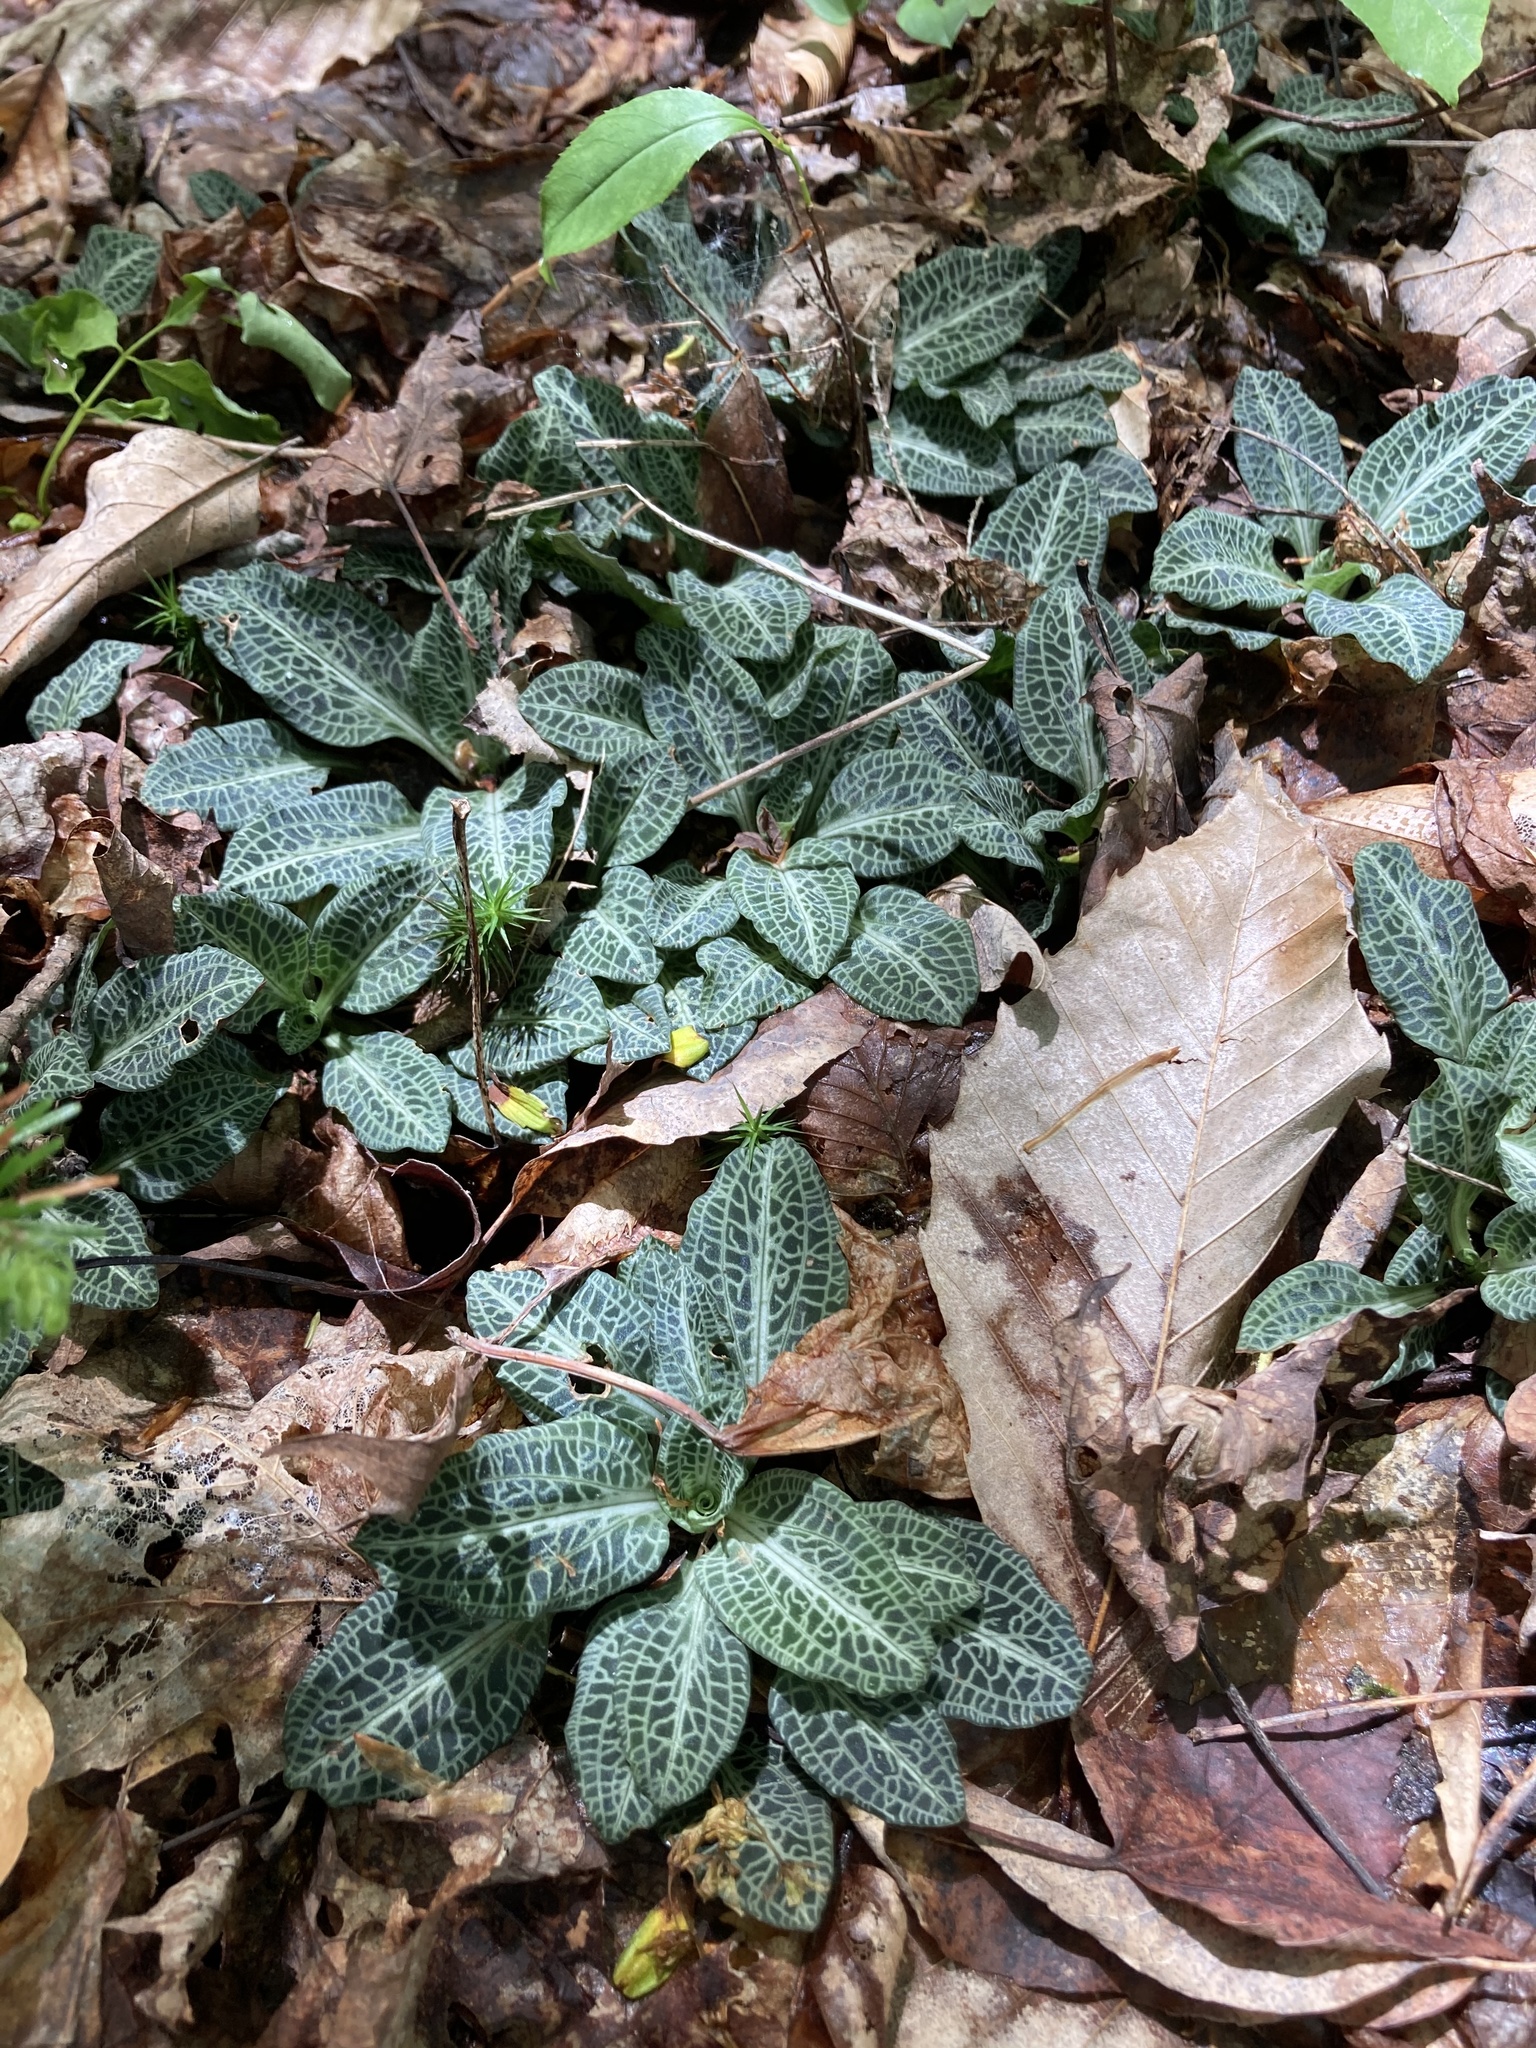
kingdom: Plantae
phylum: Tracheophyta
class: Liliopsida
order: Asparagales
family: Orchidaceae
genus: Goodyera
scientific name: Goodyera pubescens
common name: Downy rattlesnake-plantain
